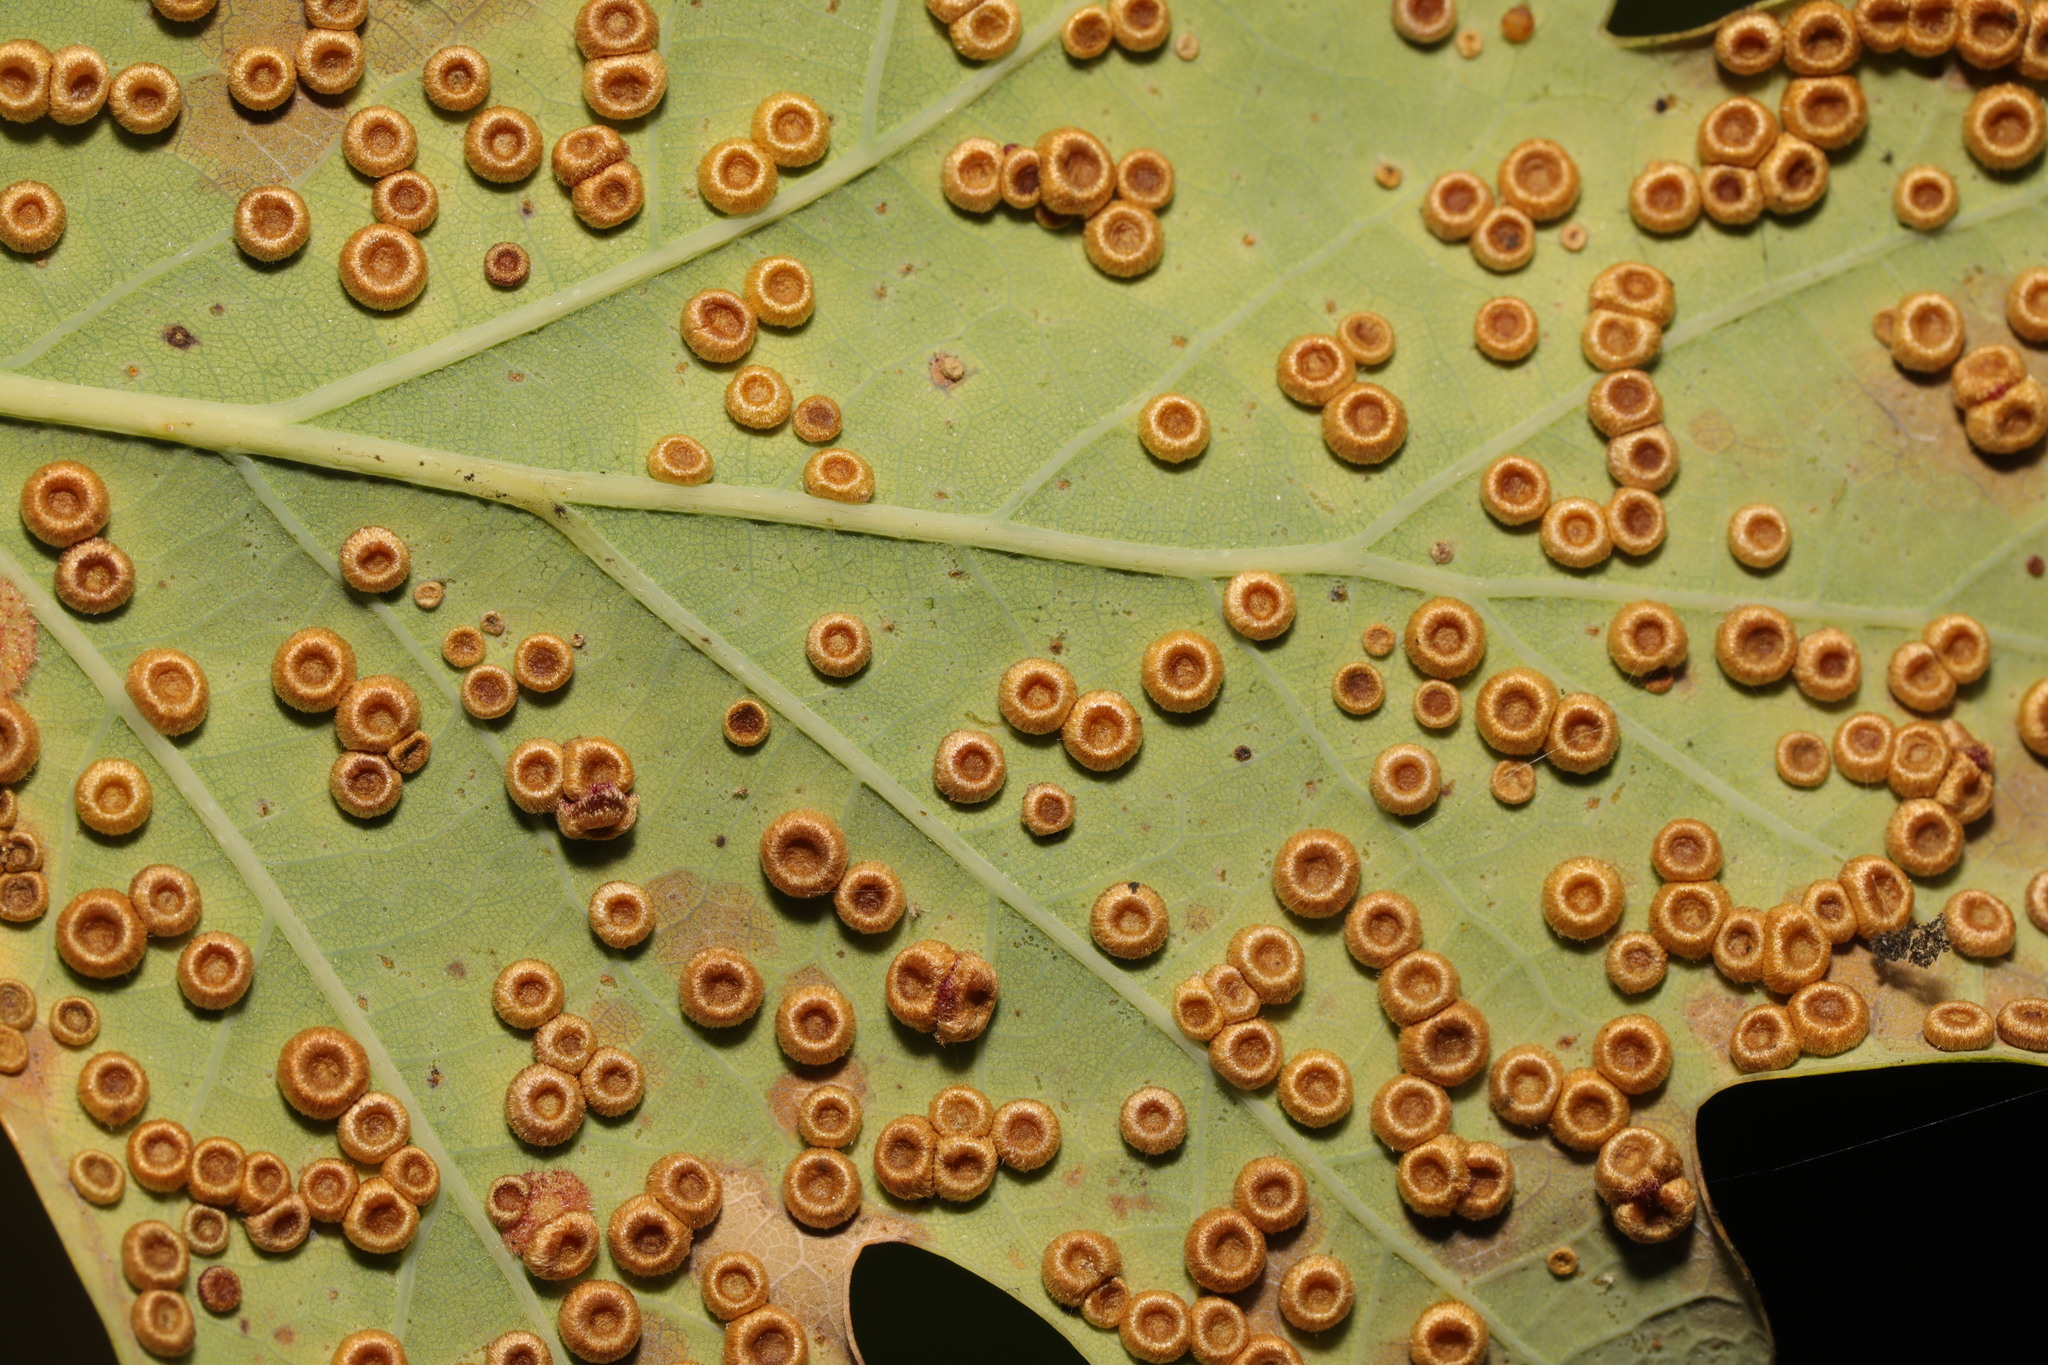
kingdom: Animalia
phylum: Arthropoda
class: Insecta
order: Hymenoptera
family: Cynipidae
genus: Neuroterus
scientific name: Neuroterus numismalis
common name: Silk-button spangle gall
